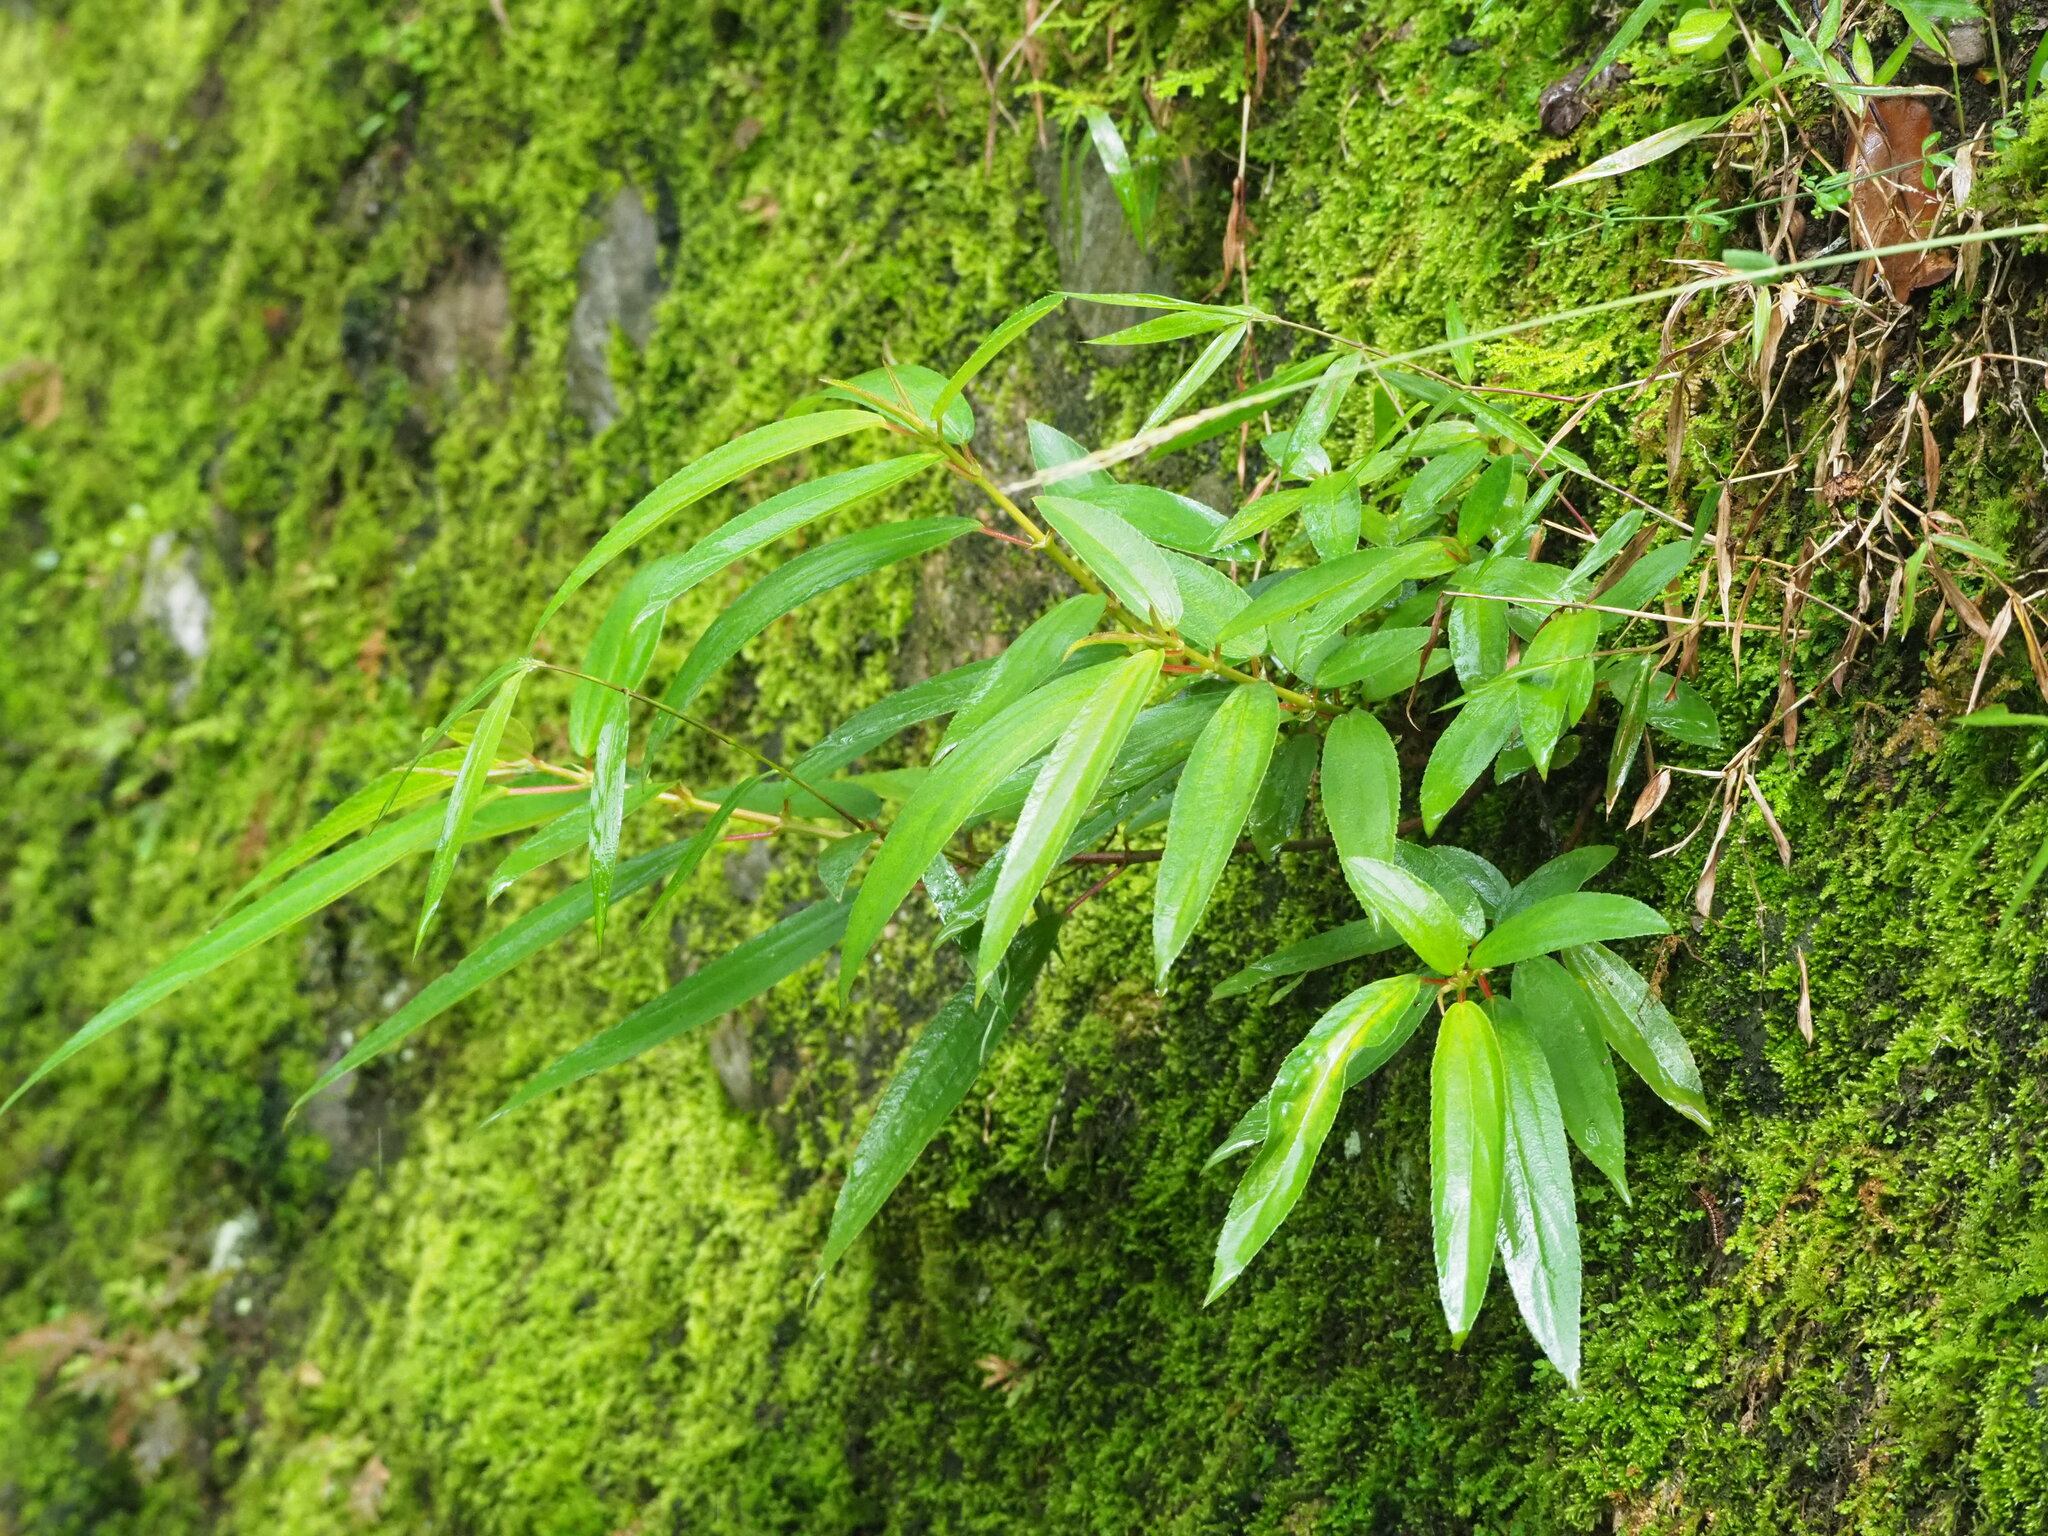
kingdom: Plantae
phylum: Tracheophyta
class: Magnoliopsida
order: Rosales
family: Urticaceae
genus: Boehmeria
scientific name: Boehmeria densiflora
